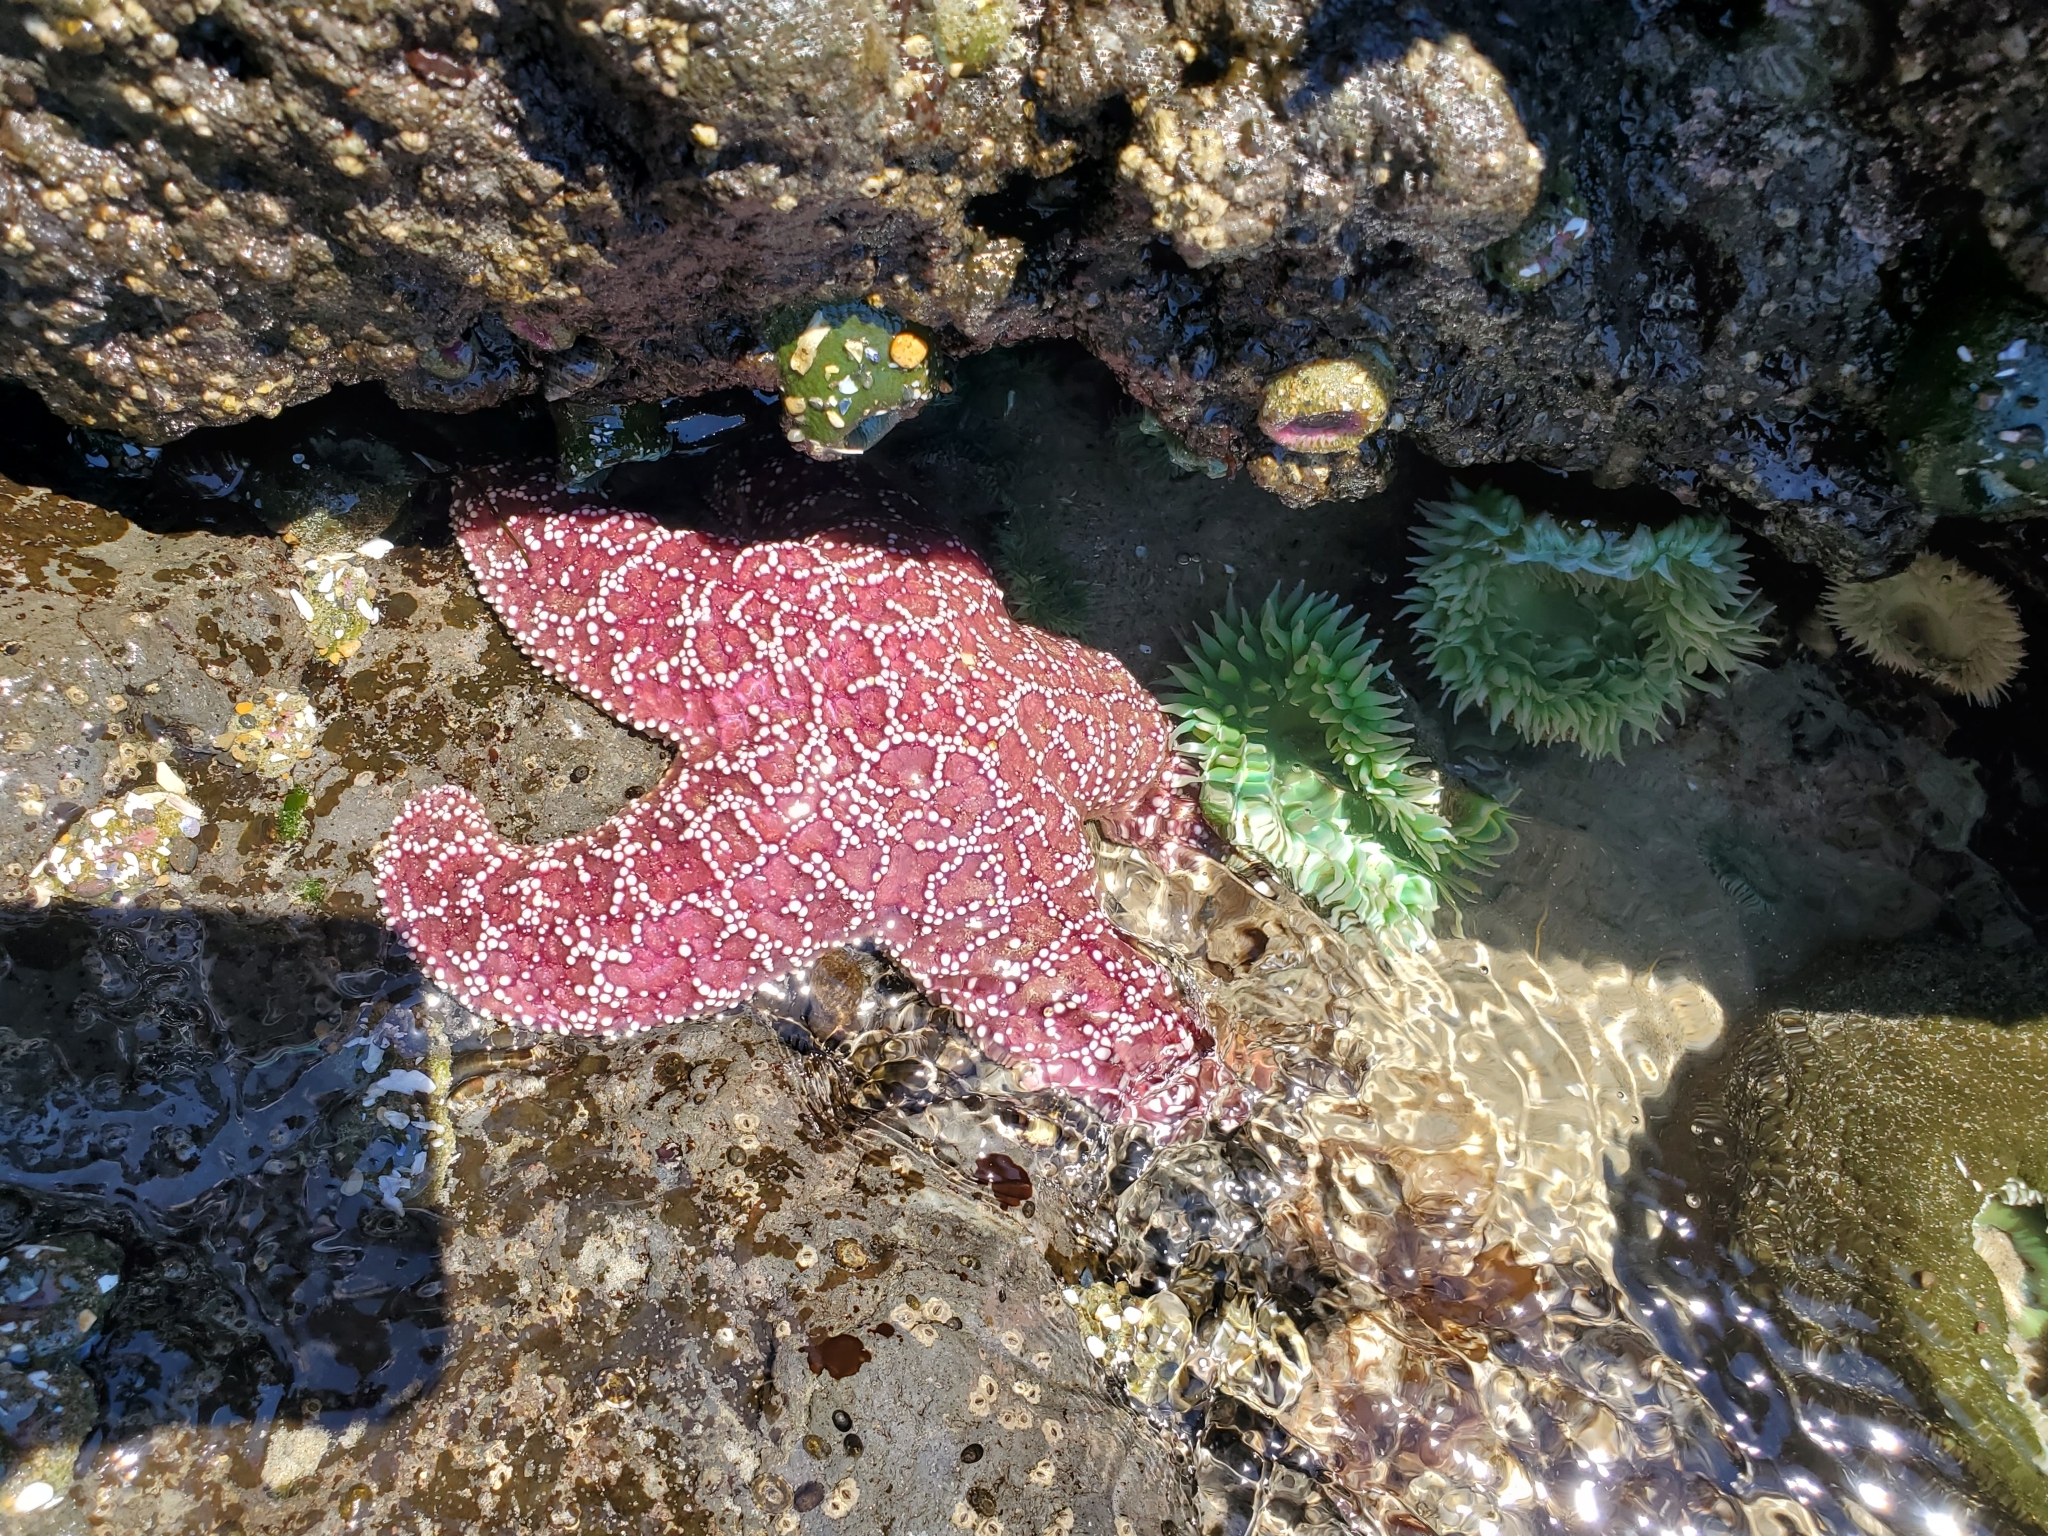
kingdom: Animalia
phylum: Echinodermata
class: Asteroidea
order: Forcipulatida
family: Asteriidae
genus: Pisaster
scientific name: Pisaster ochraceus
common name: Ochre stars
